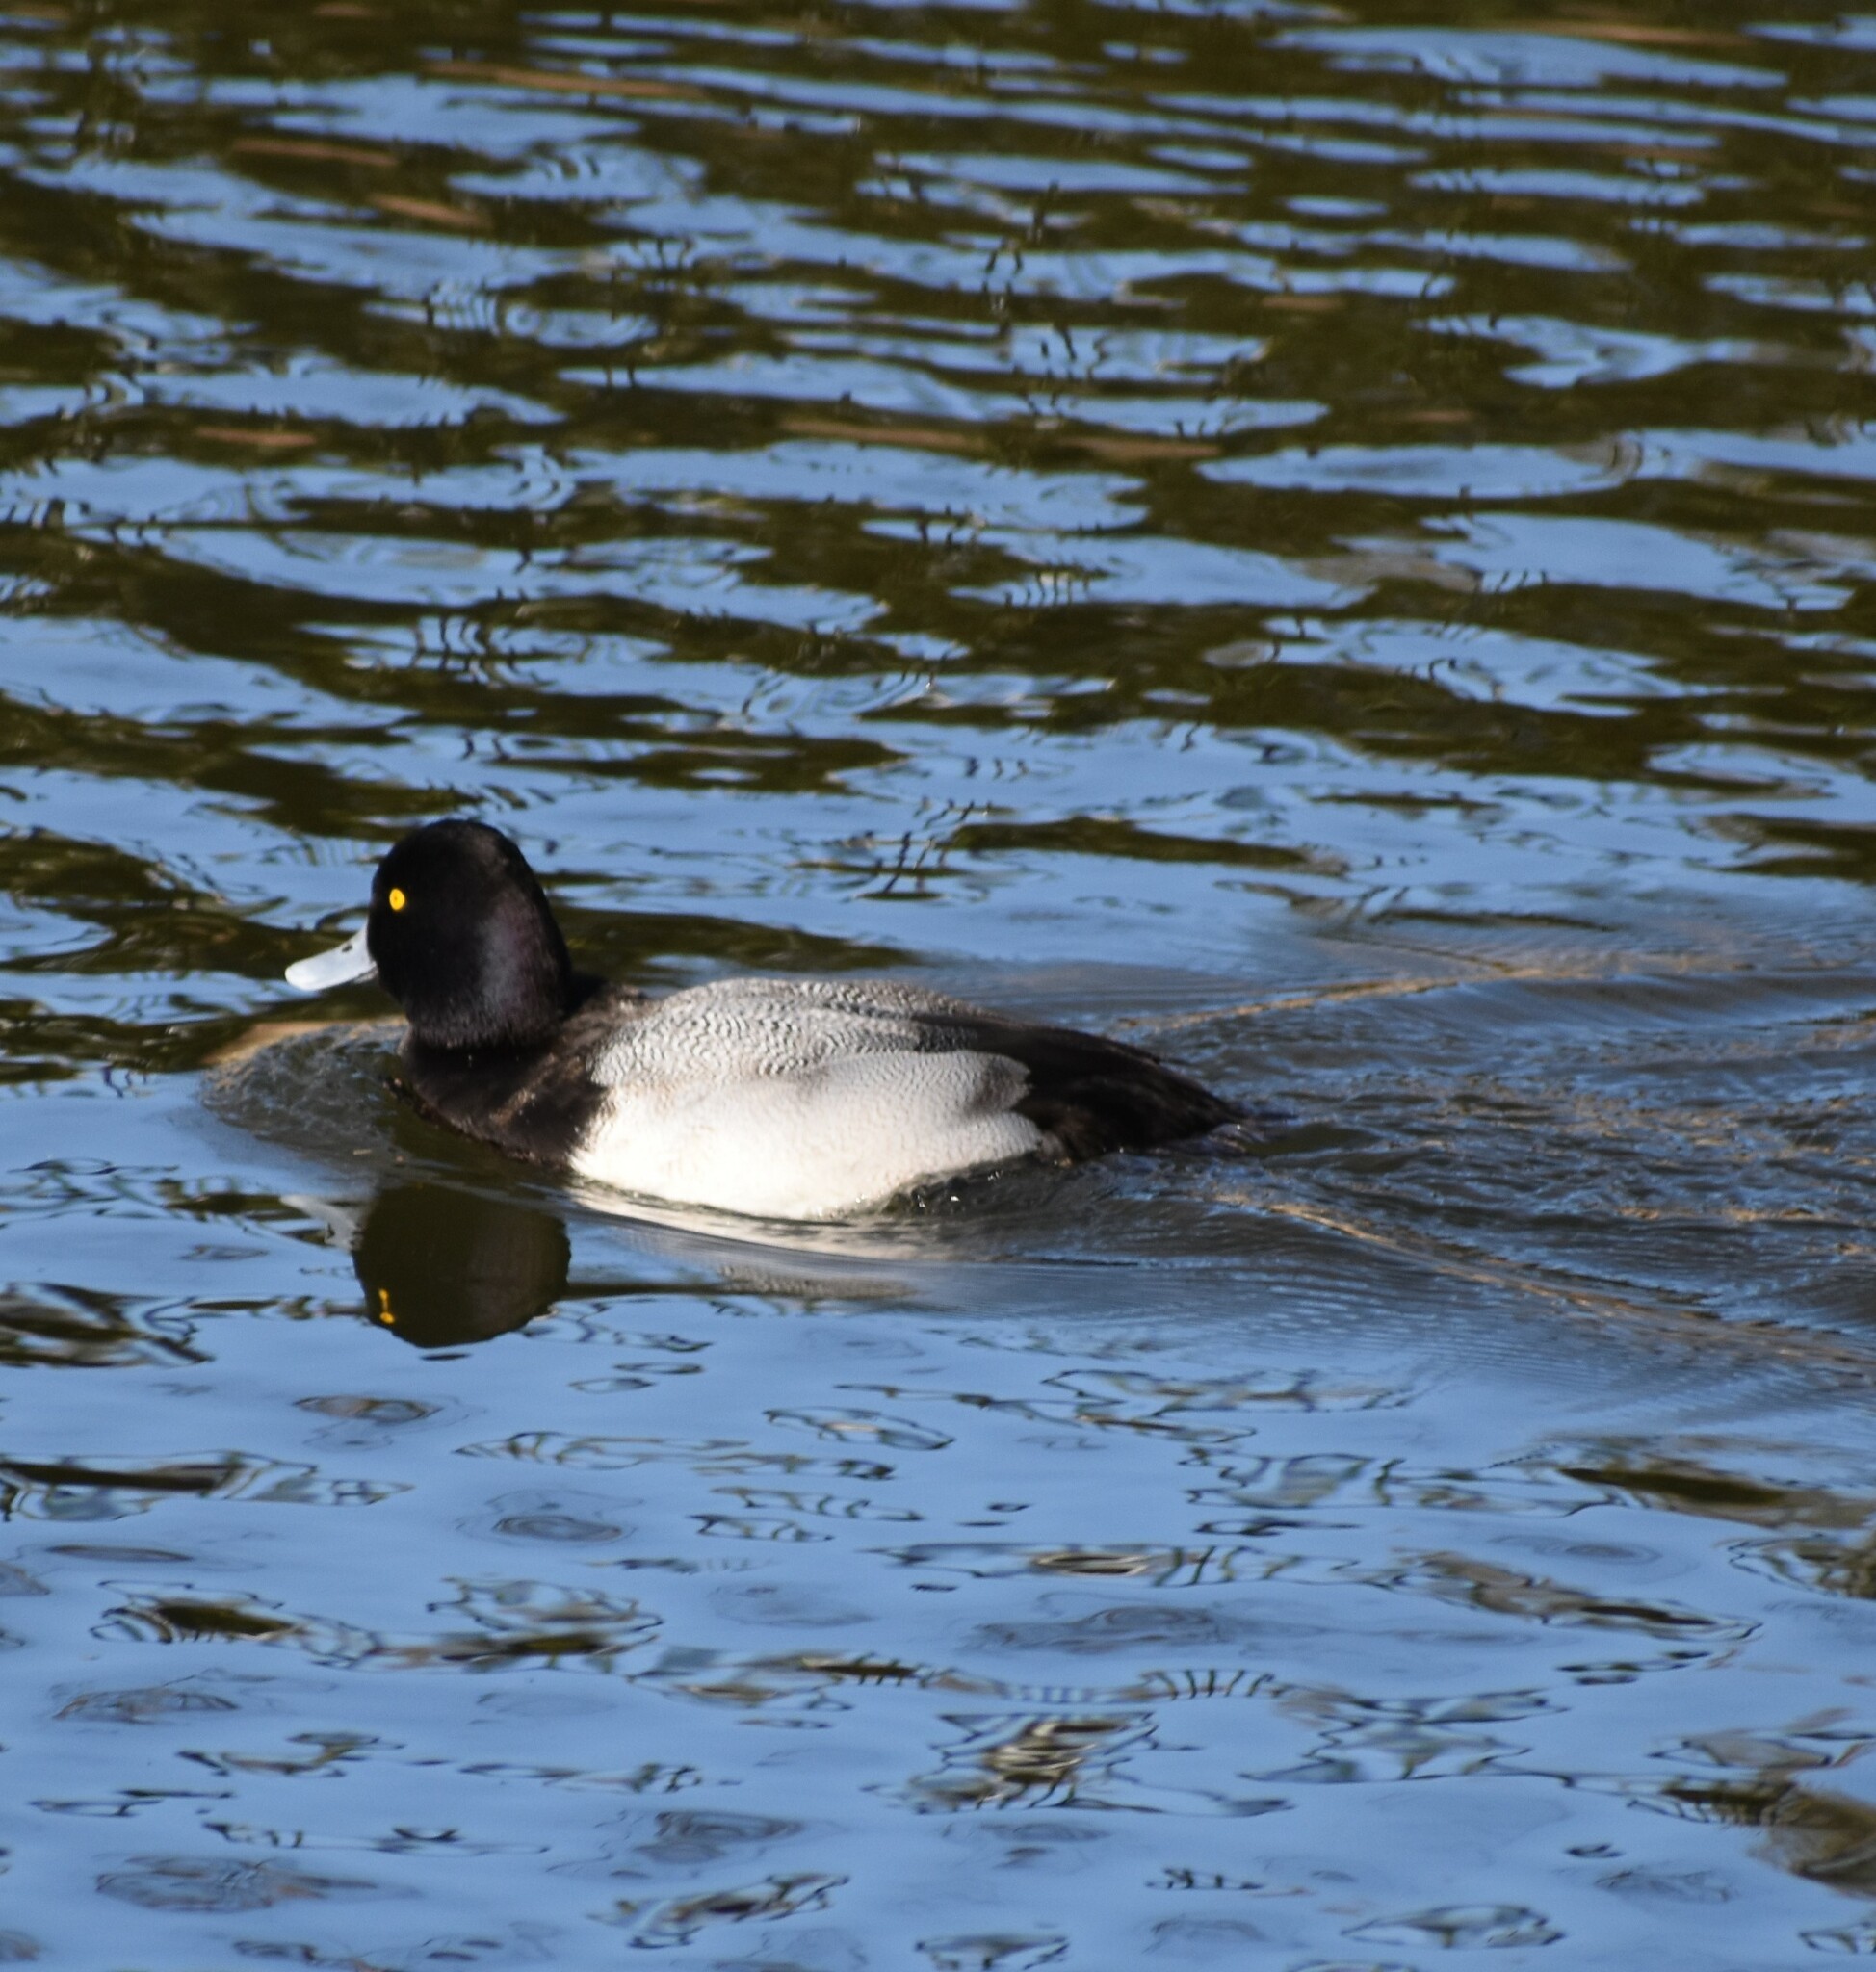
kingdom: Animalia
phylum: Chordata
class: Aves
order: Anseriformes
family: Anatidae
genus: Aythya
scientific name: Aythya affinis
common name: Lesser scaup
